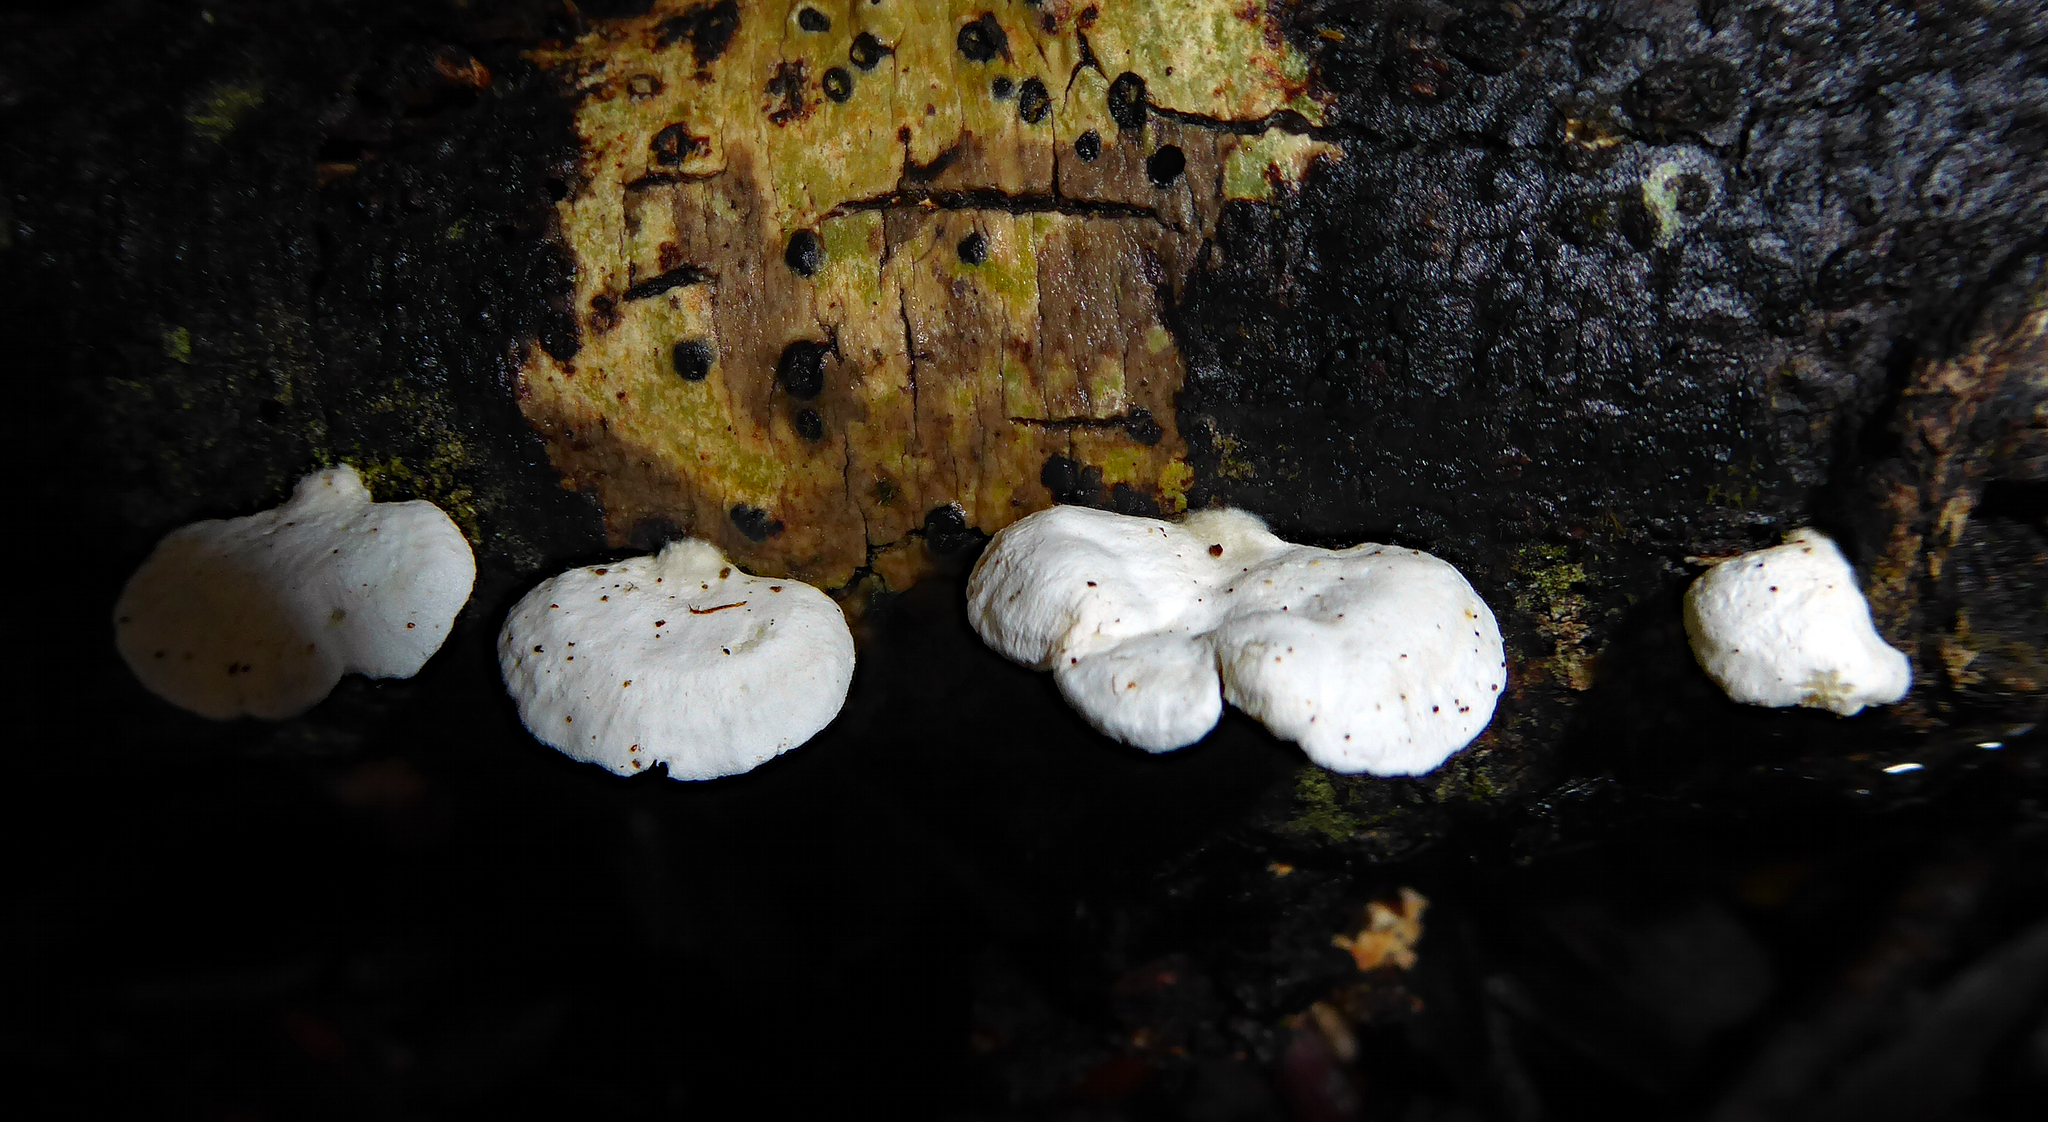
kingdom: Fungi
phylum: Basidiomycota
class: Agaricomycetes
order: Agaricales
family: Cyphellaceae
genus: Cheimonophyllum
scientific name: Cheimonophyllum
